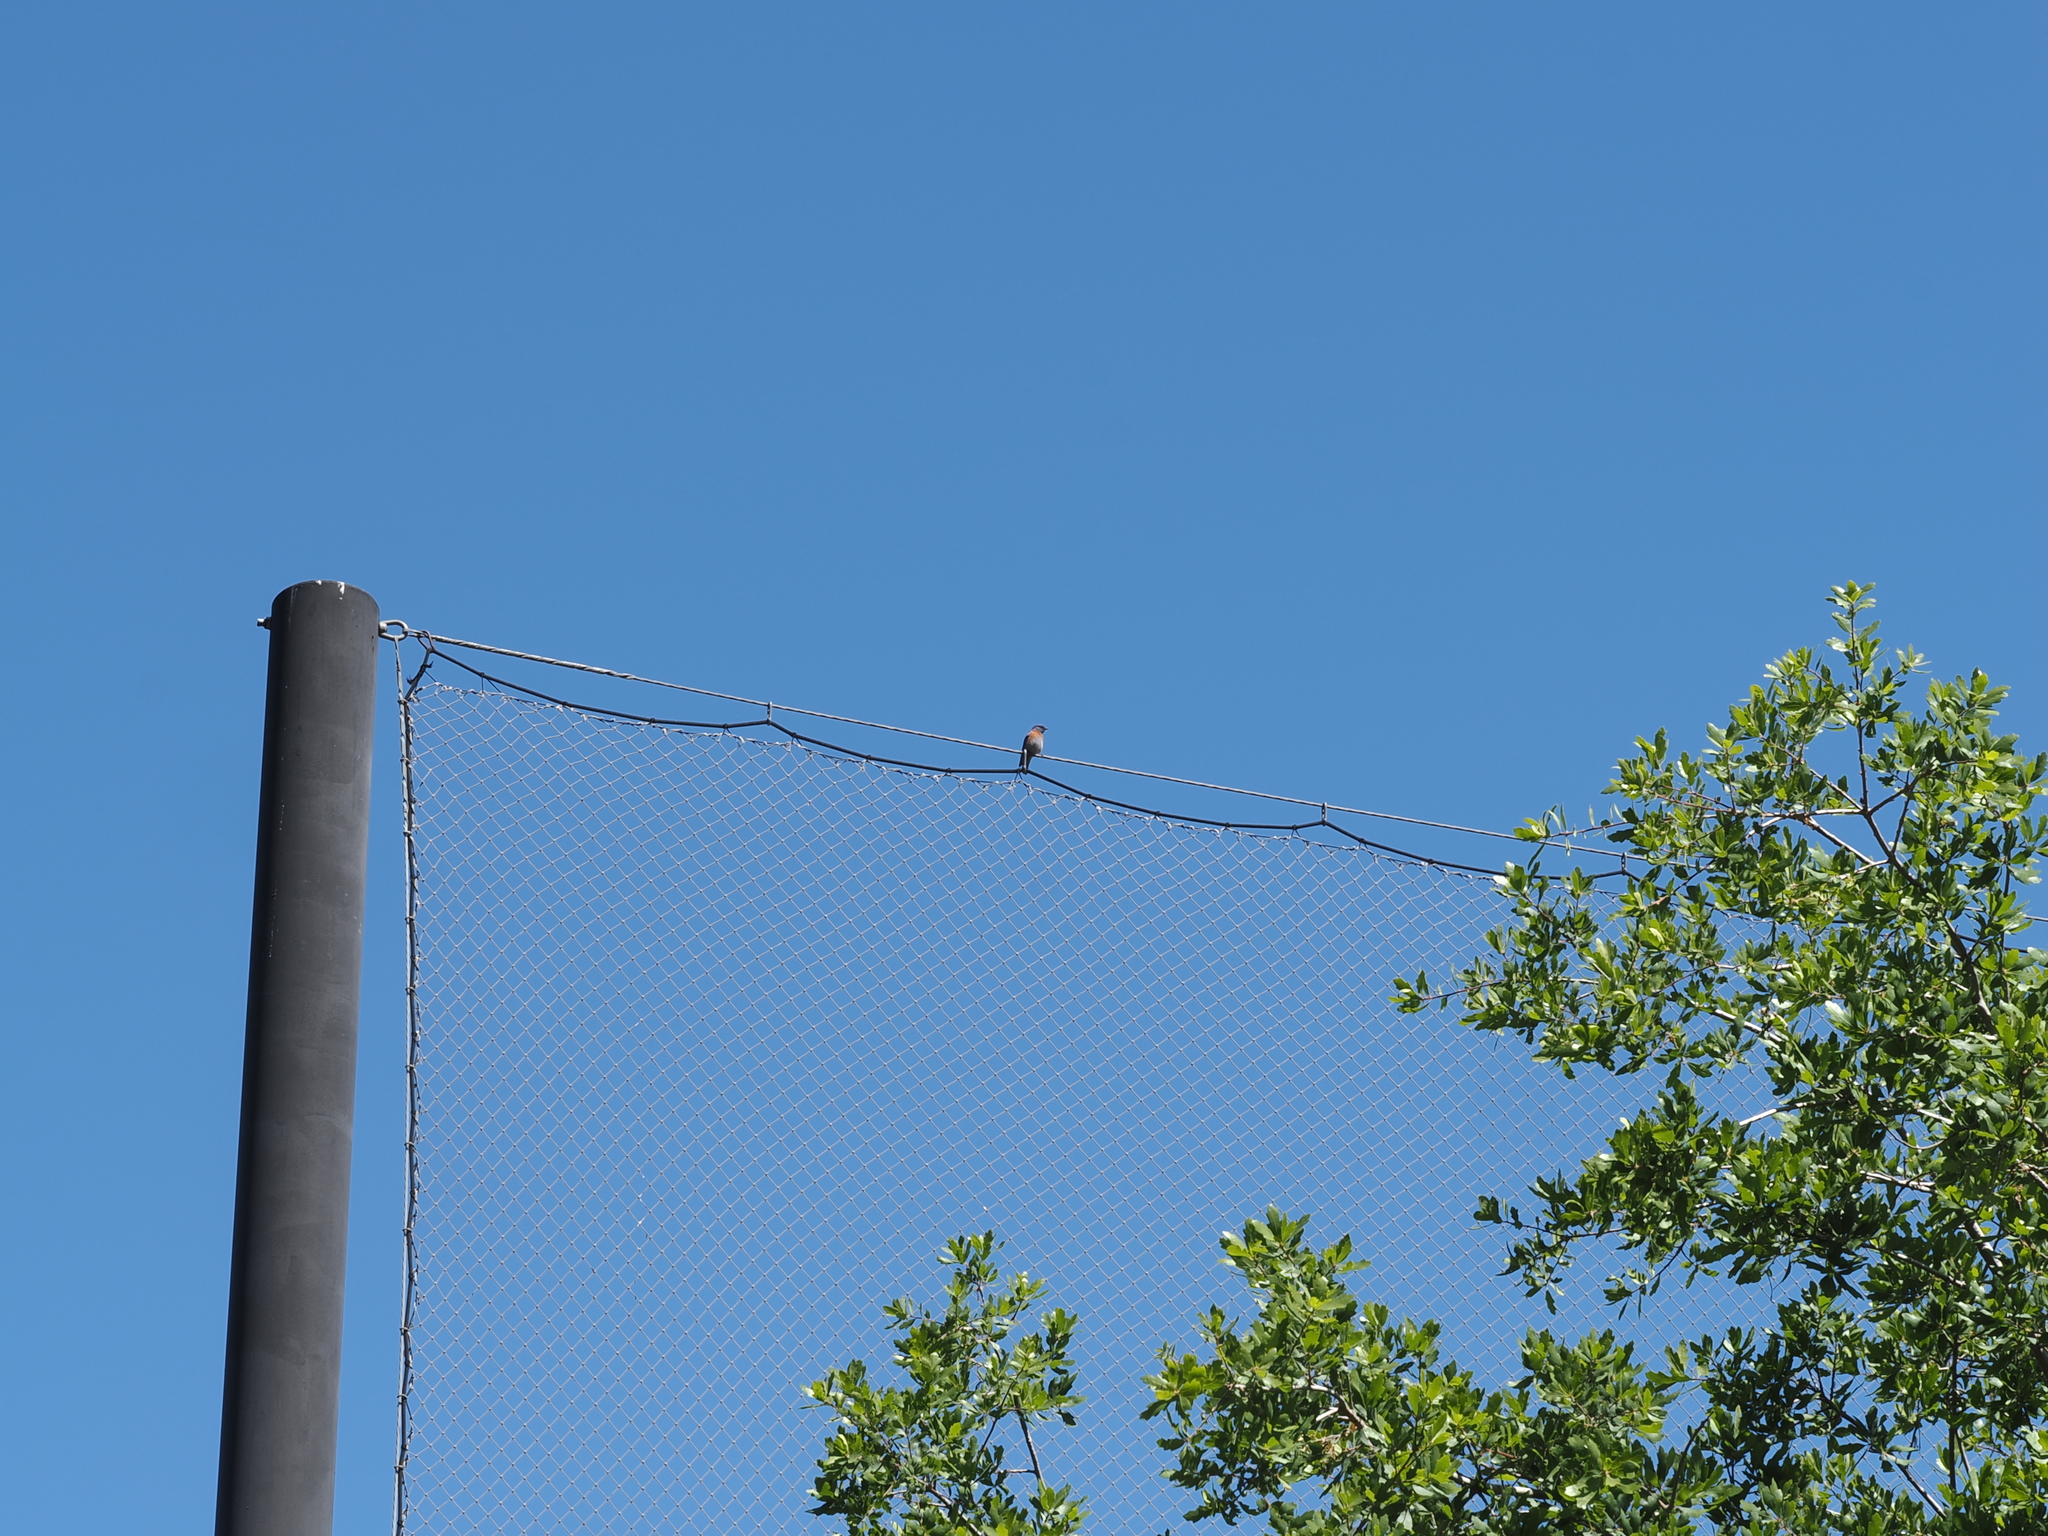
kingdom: Animalia
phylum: Chordata
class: Aves
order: Passeriformes
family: Turdidae
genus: Sialia
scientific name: Sialia mexicana
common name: Western bluebird
